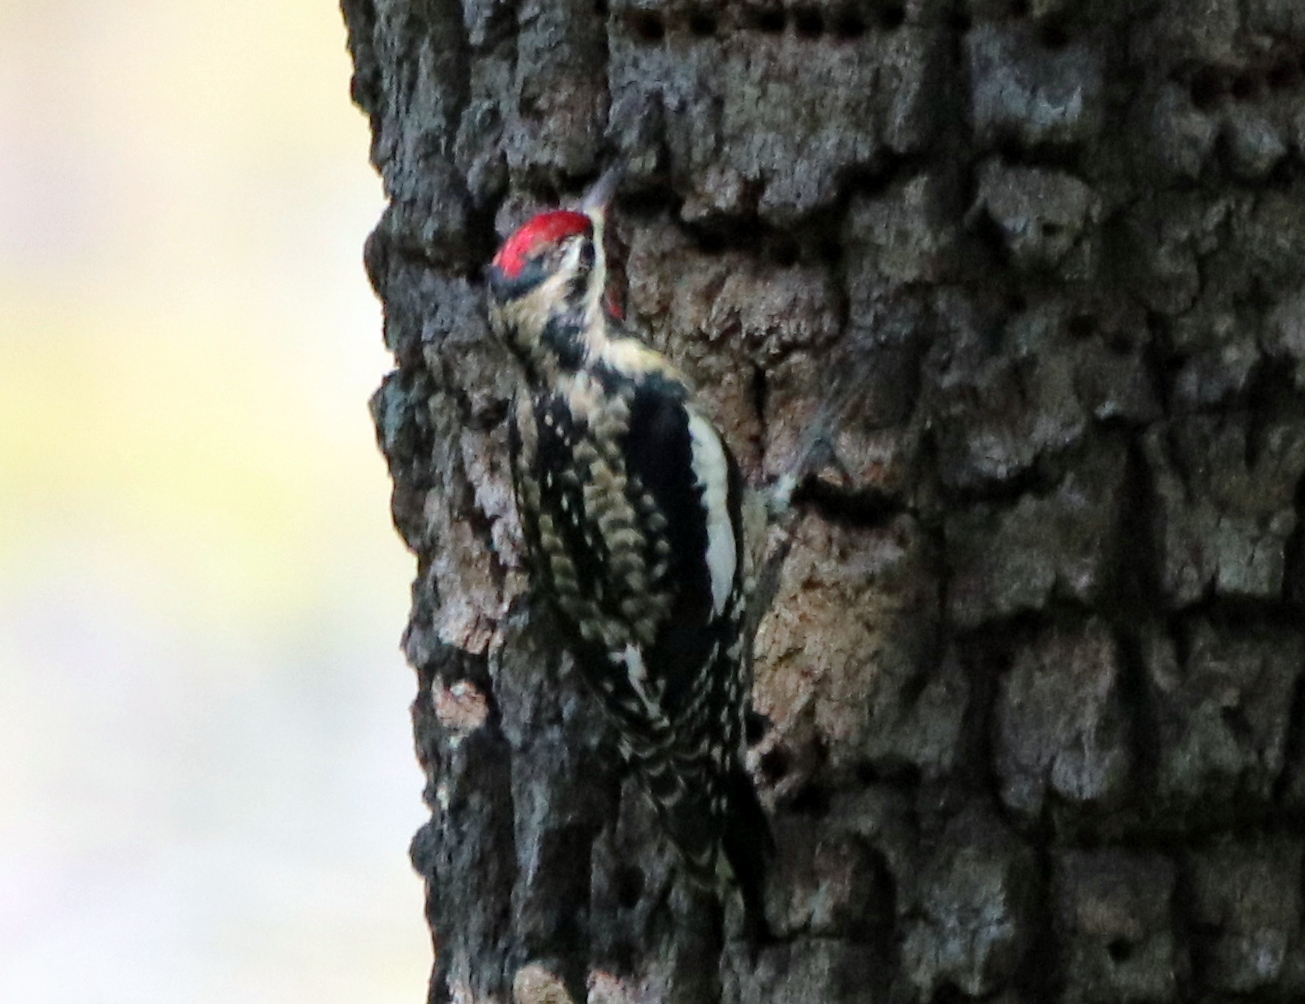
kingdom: Animalia
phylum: Chordata
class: Aves
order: Piciformes
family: Picidae
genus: Sphyrapicus
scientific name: Sphyrapicus varius
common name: Yellow-bellied sapsucker
